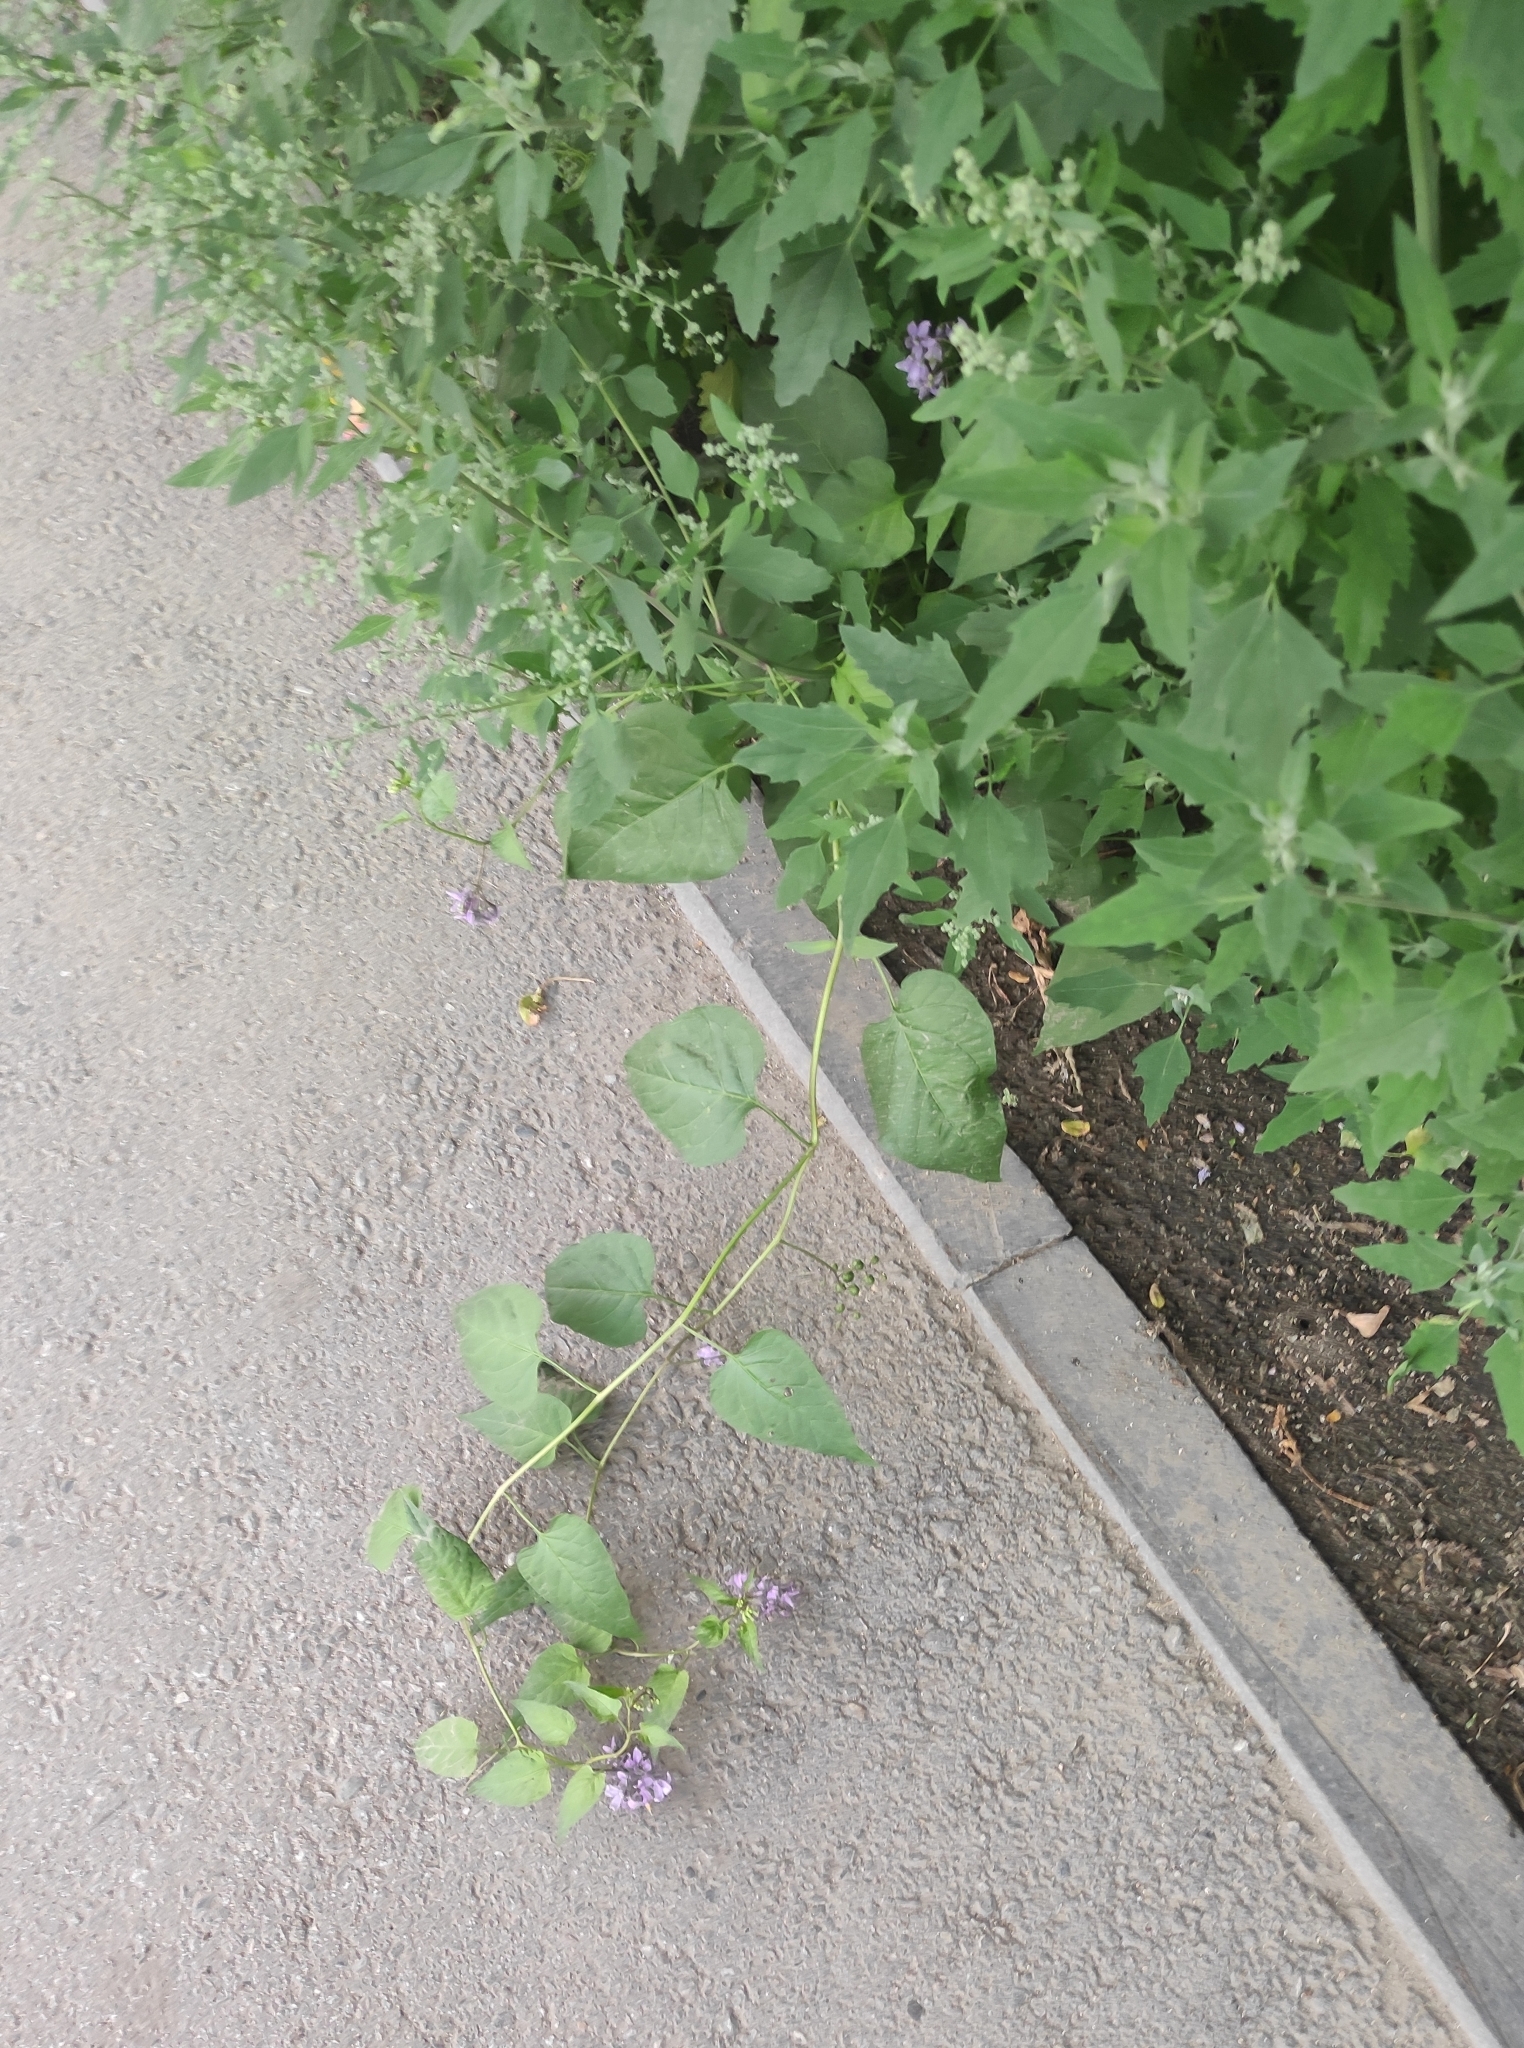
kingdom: Plantae
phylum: Tracheophyta
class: Magnoliopsida
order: Solanales
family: Solanaceae
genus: Solanum
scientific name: Solanum dulcamara
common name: Climbing nightshade
